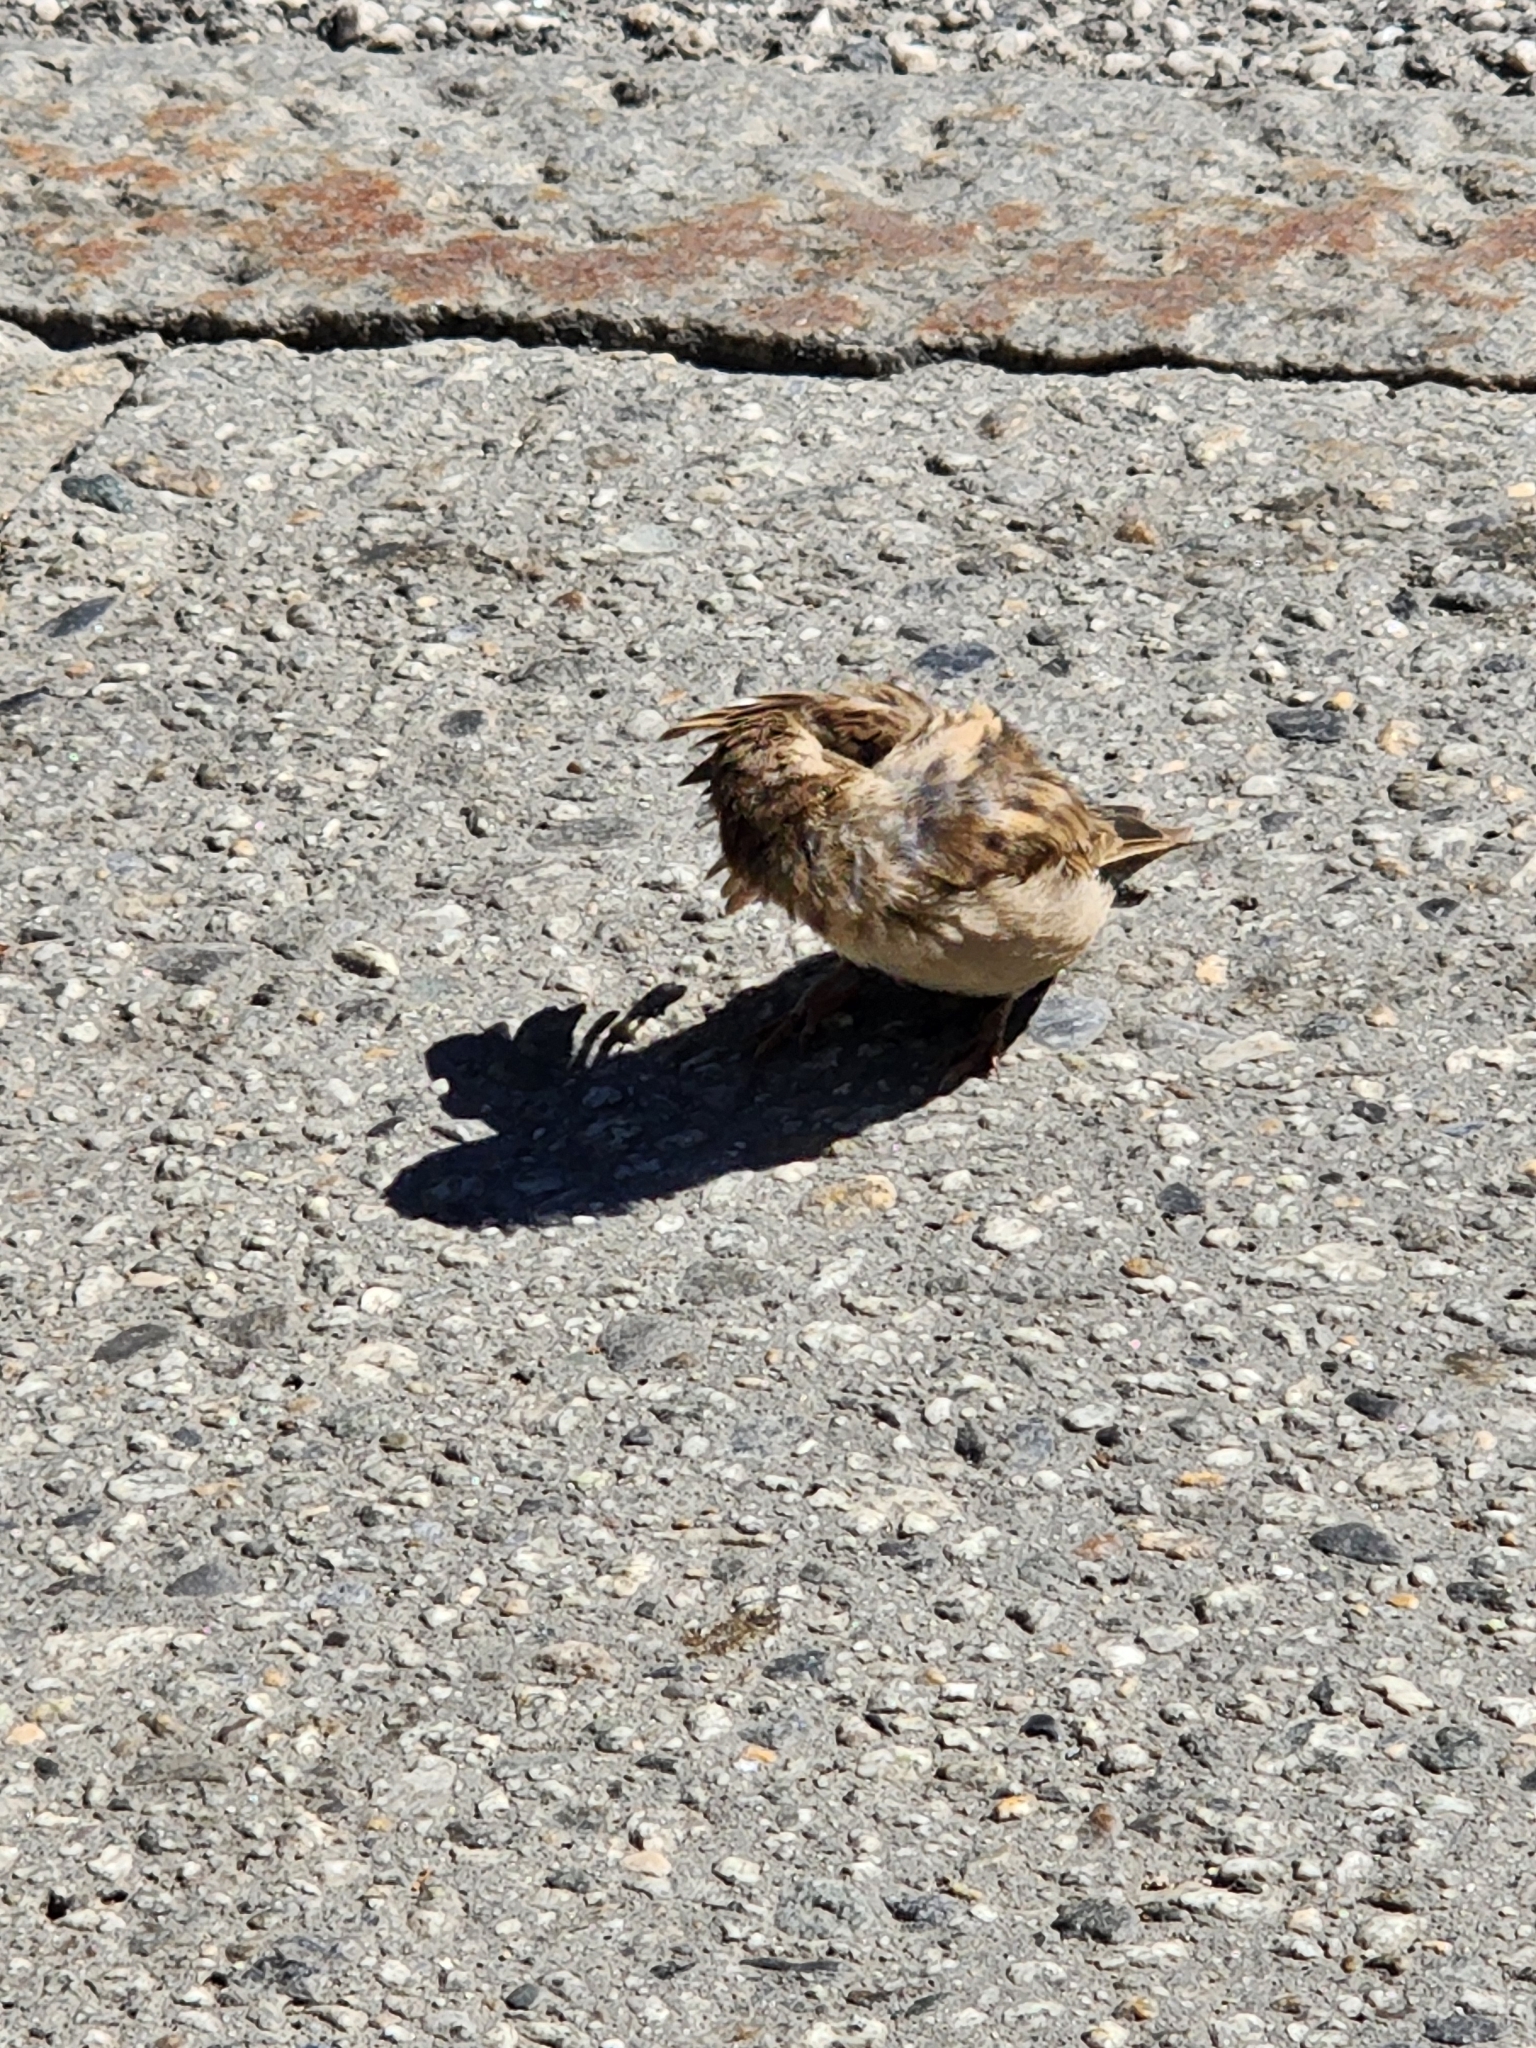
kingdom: Animalia
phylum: Chordata
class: Aves
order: Passeriformes
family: Passeridae
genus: Passer
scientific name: Passer domesticus
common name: House sparrow
